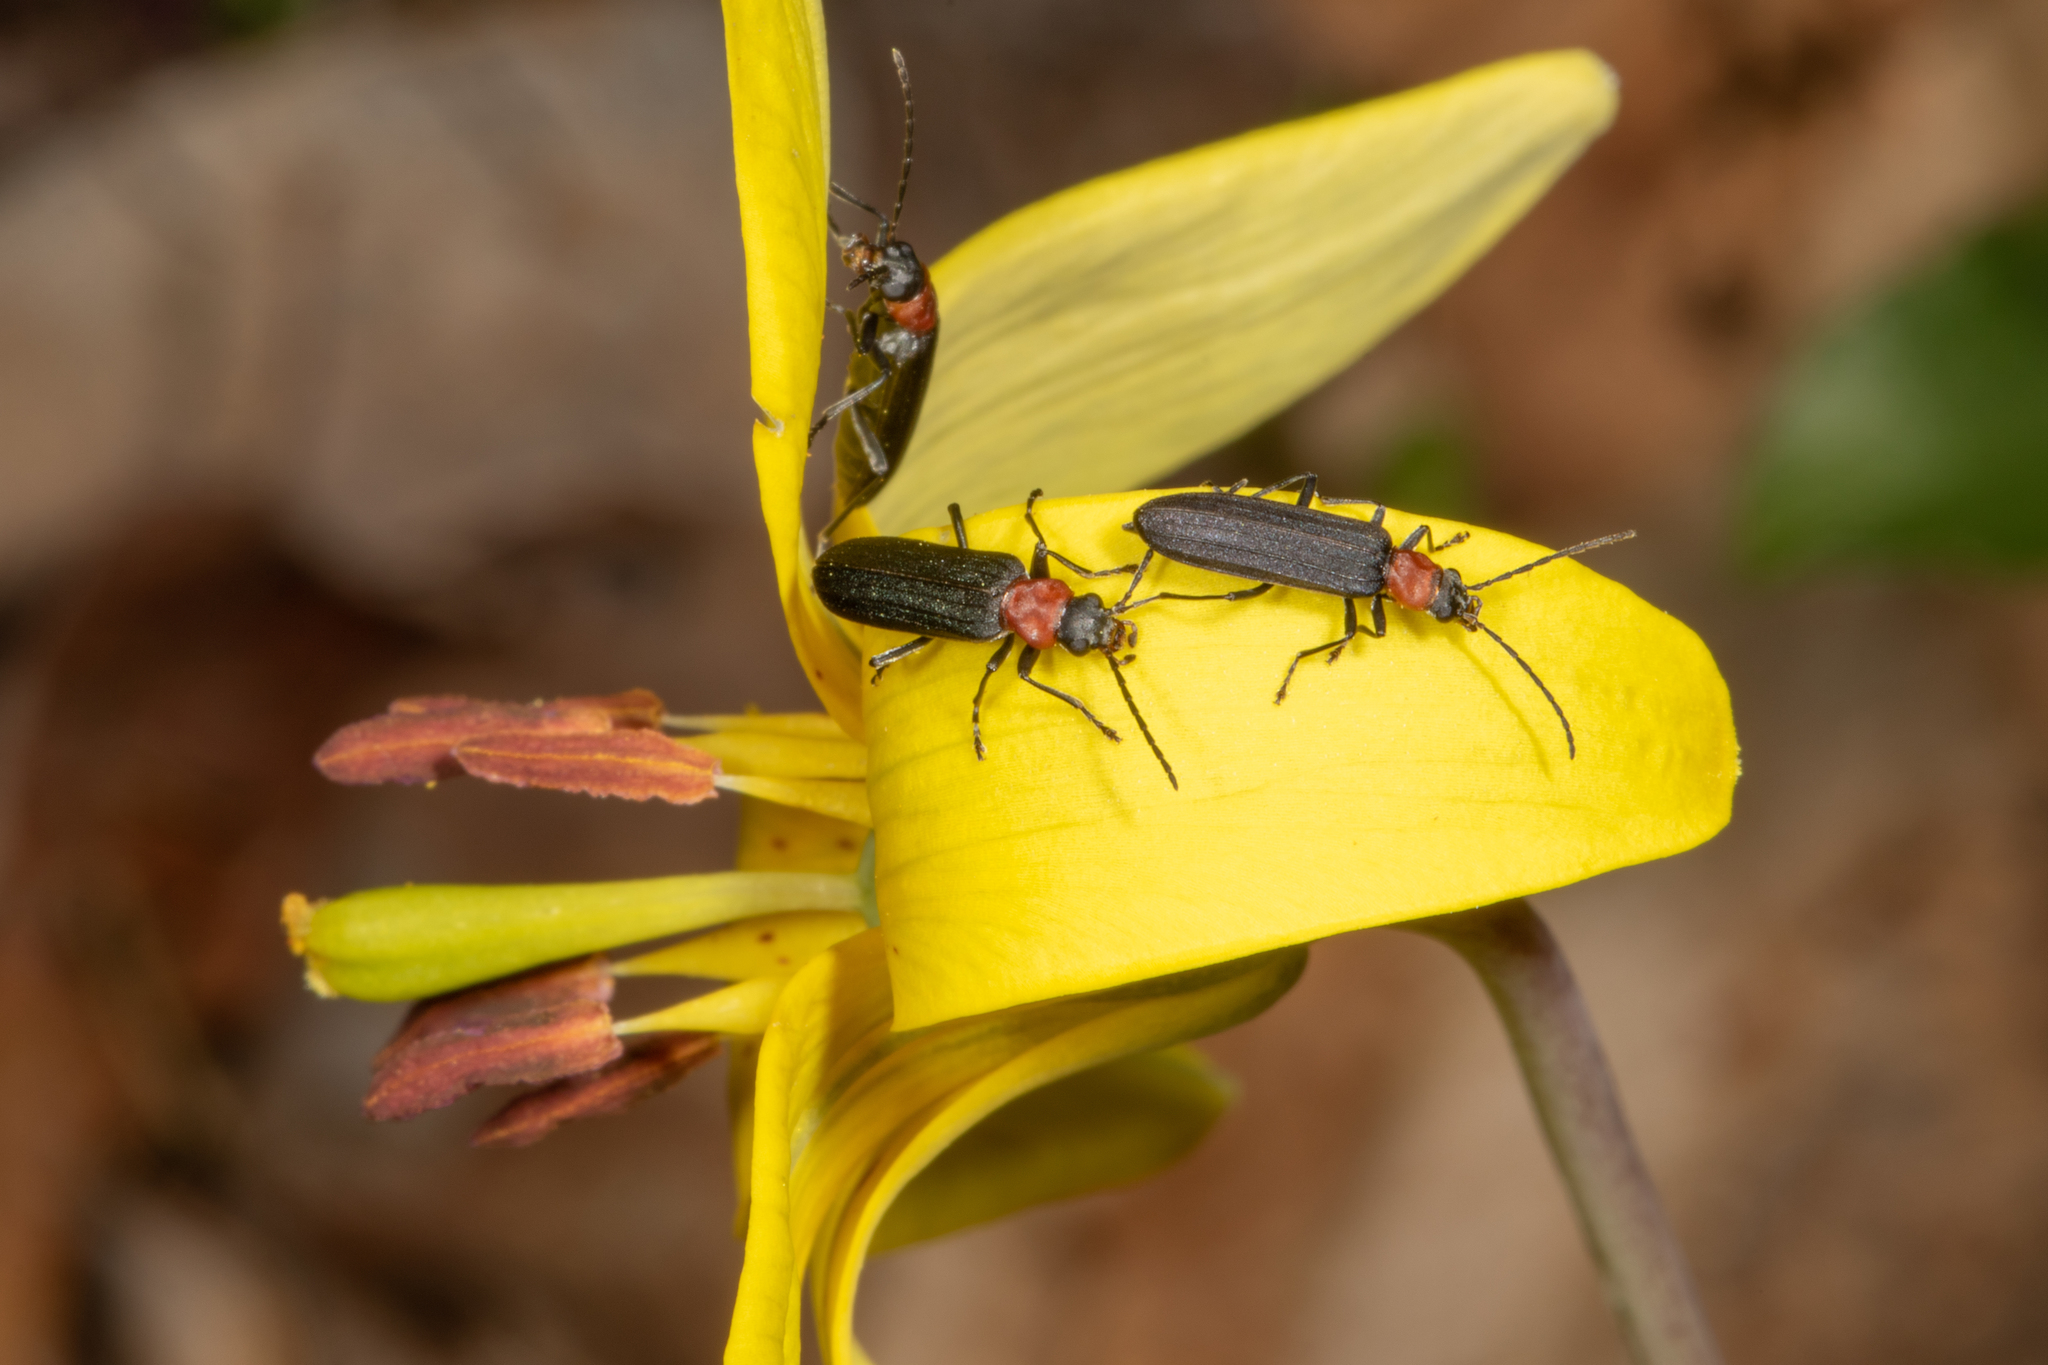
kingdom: Animalia
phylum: Arthropoda
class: Insecta
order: Coleoptera
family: Oedemeridae
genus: Ischnomera
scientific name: Ischnomera
